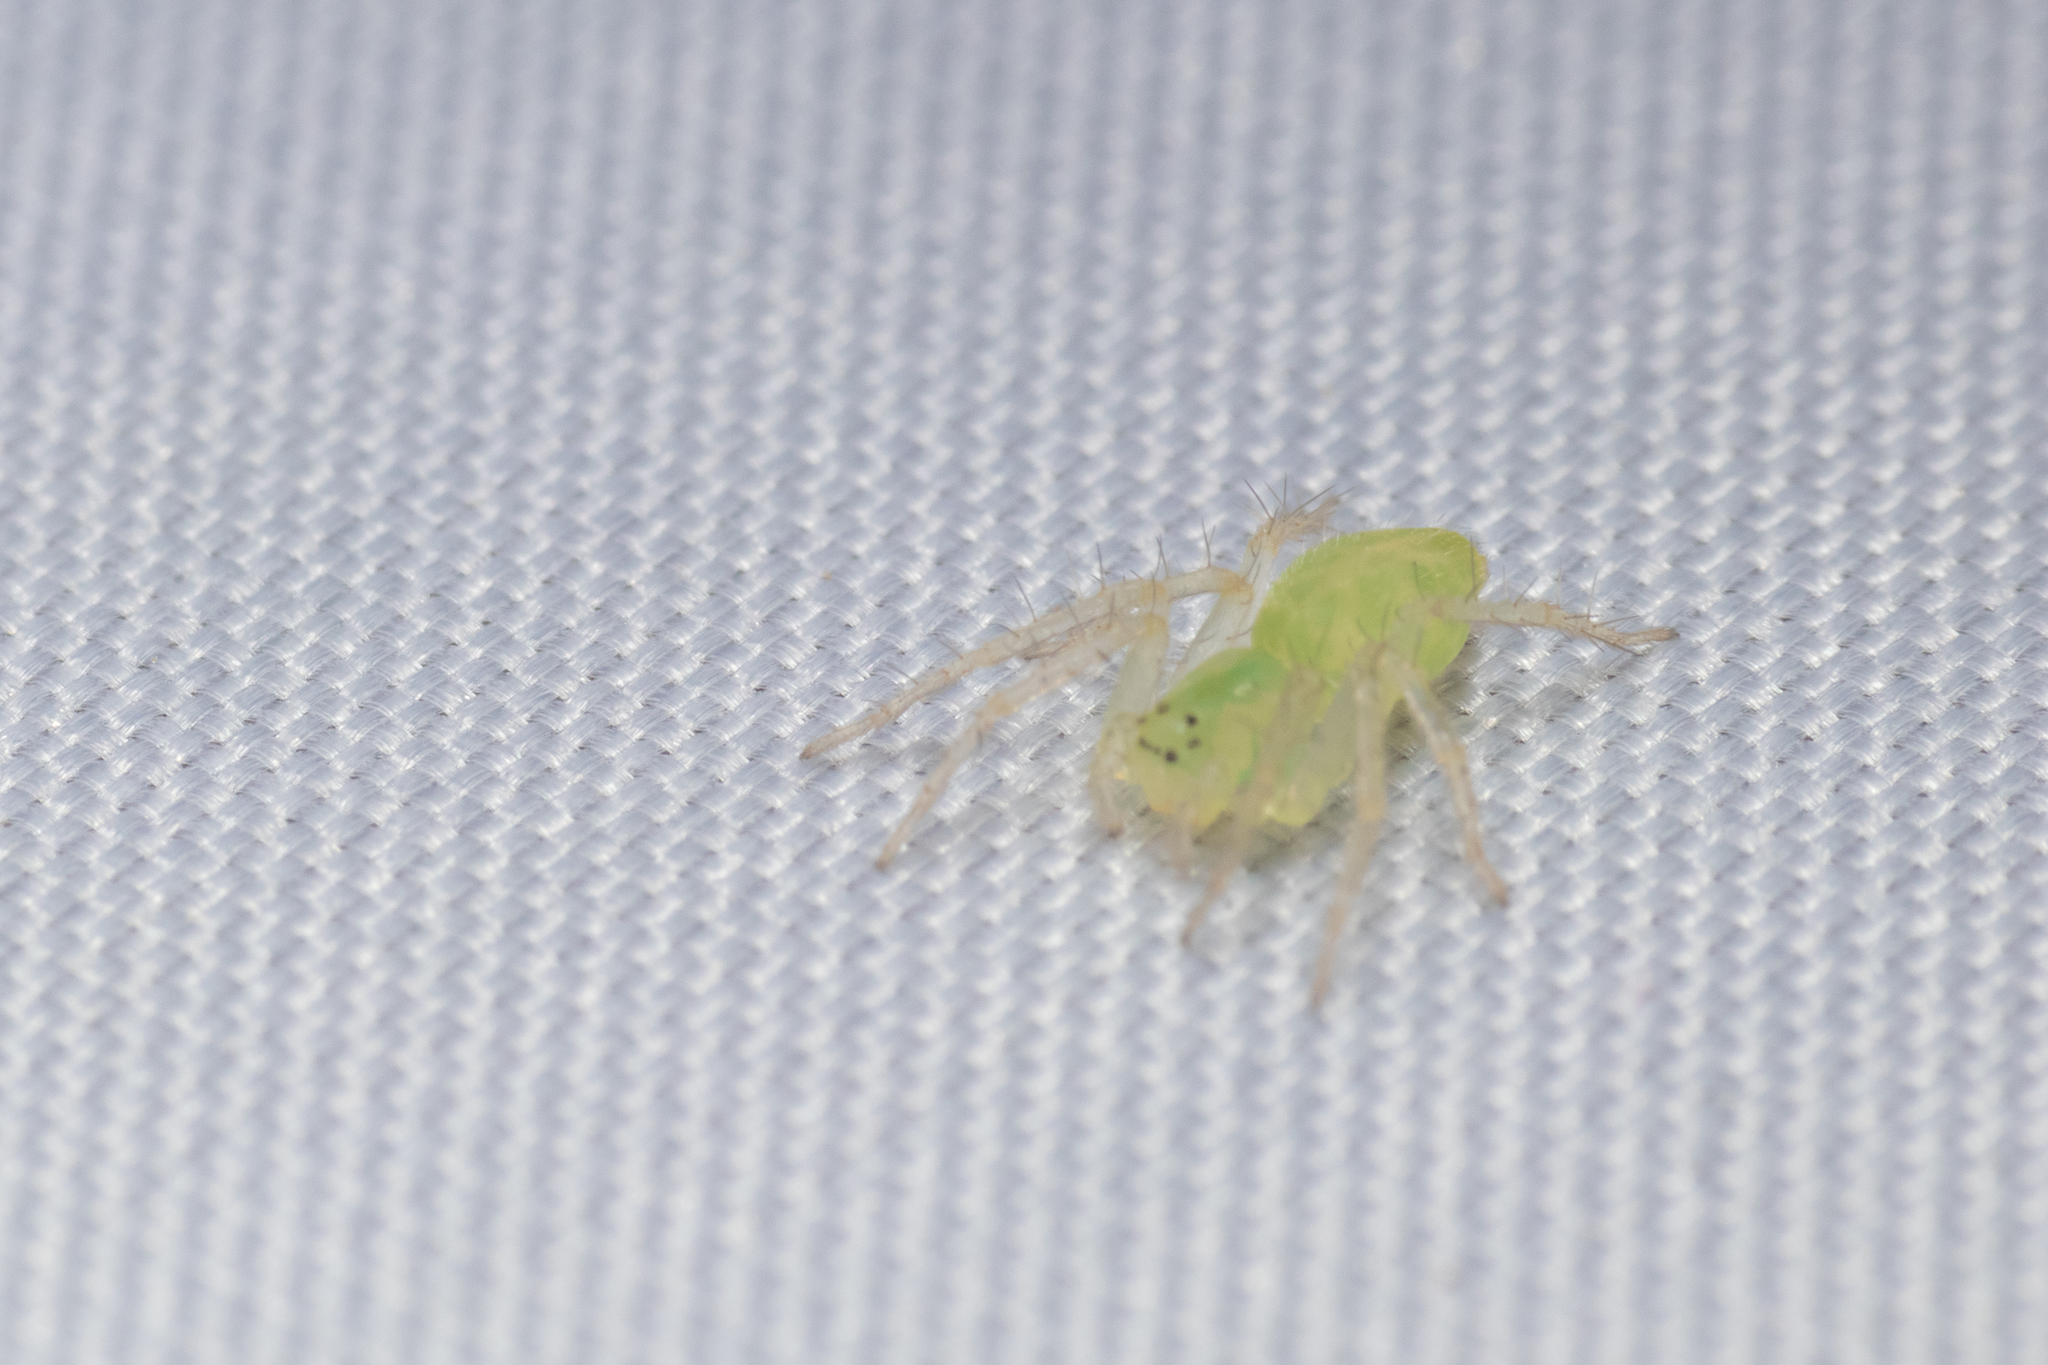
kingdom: Animalia
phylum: Arthropoda
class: Arachnida
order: Araneae
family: Toxopidae
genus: Lamina
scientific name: Lamina minor
